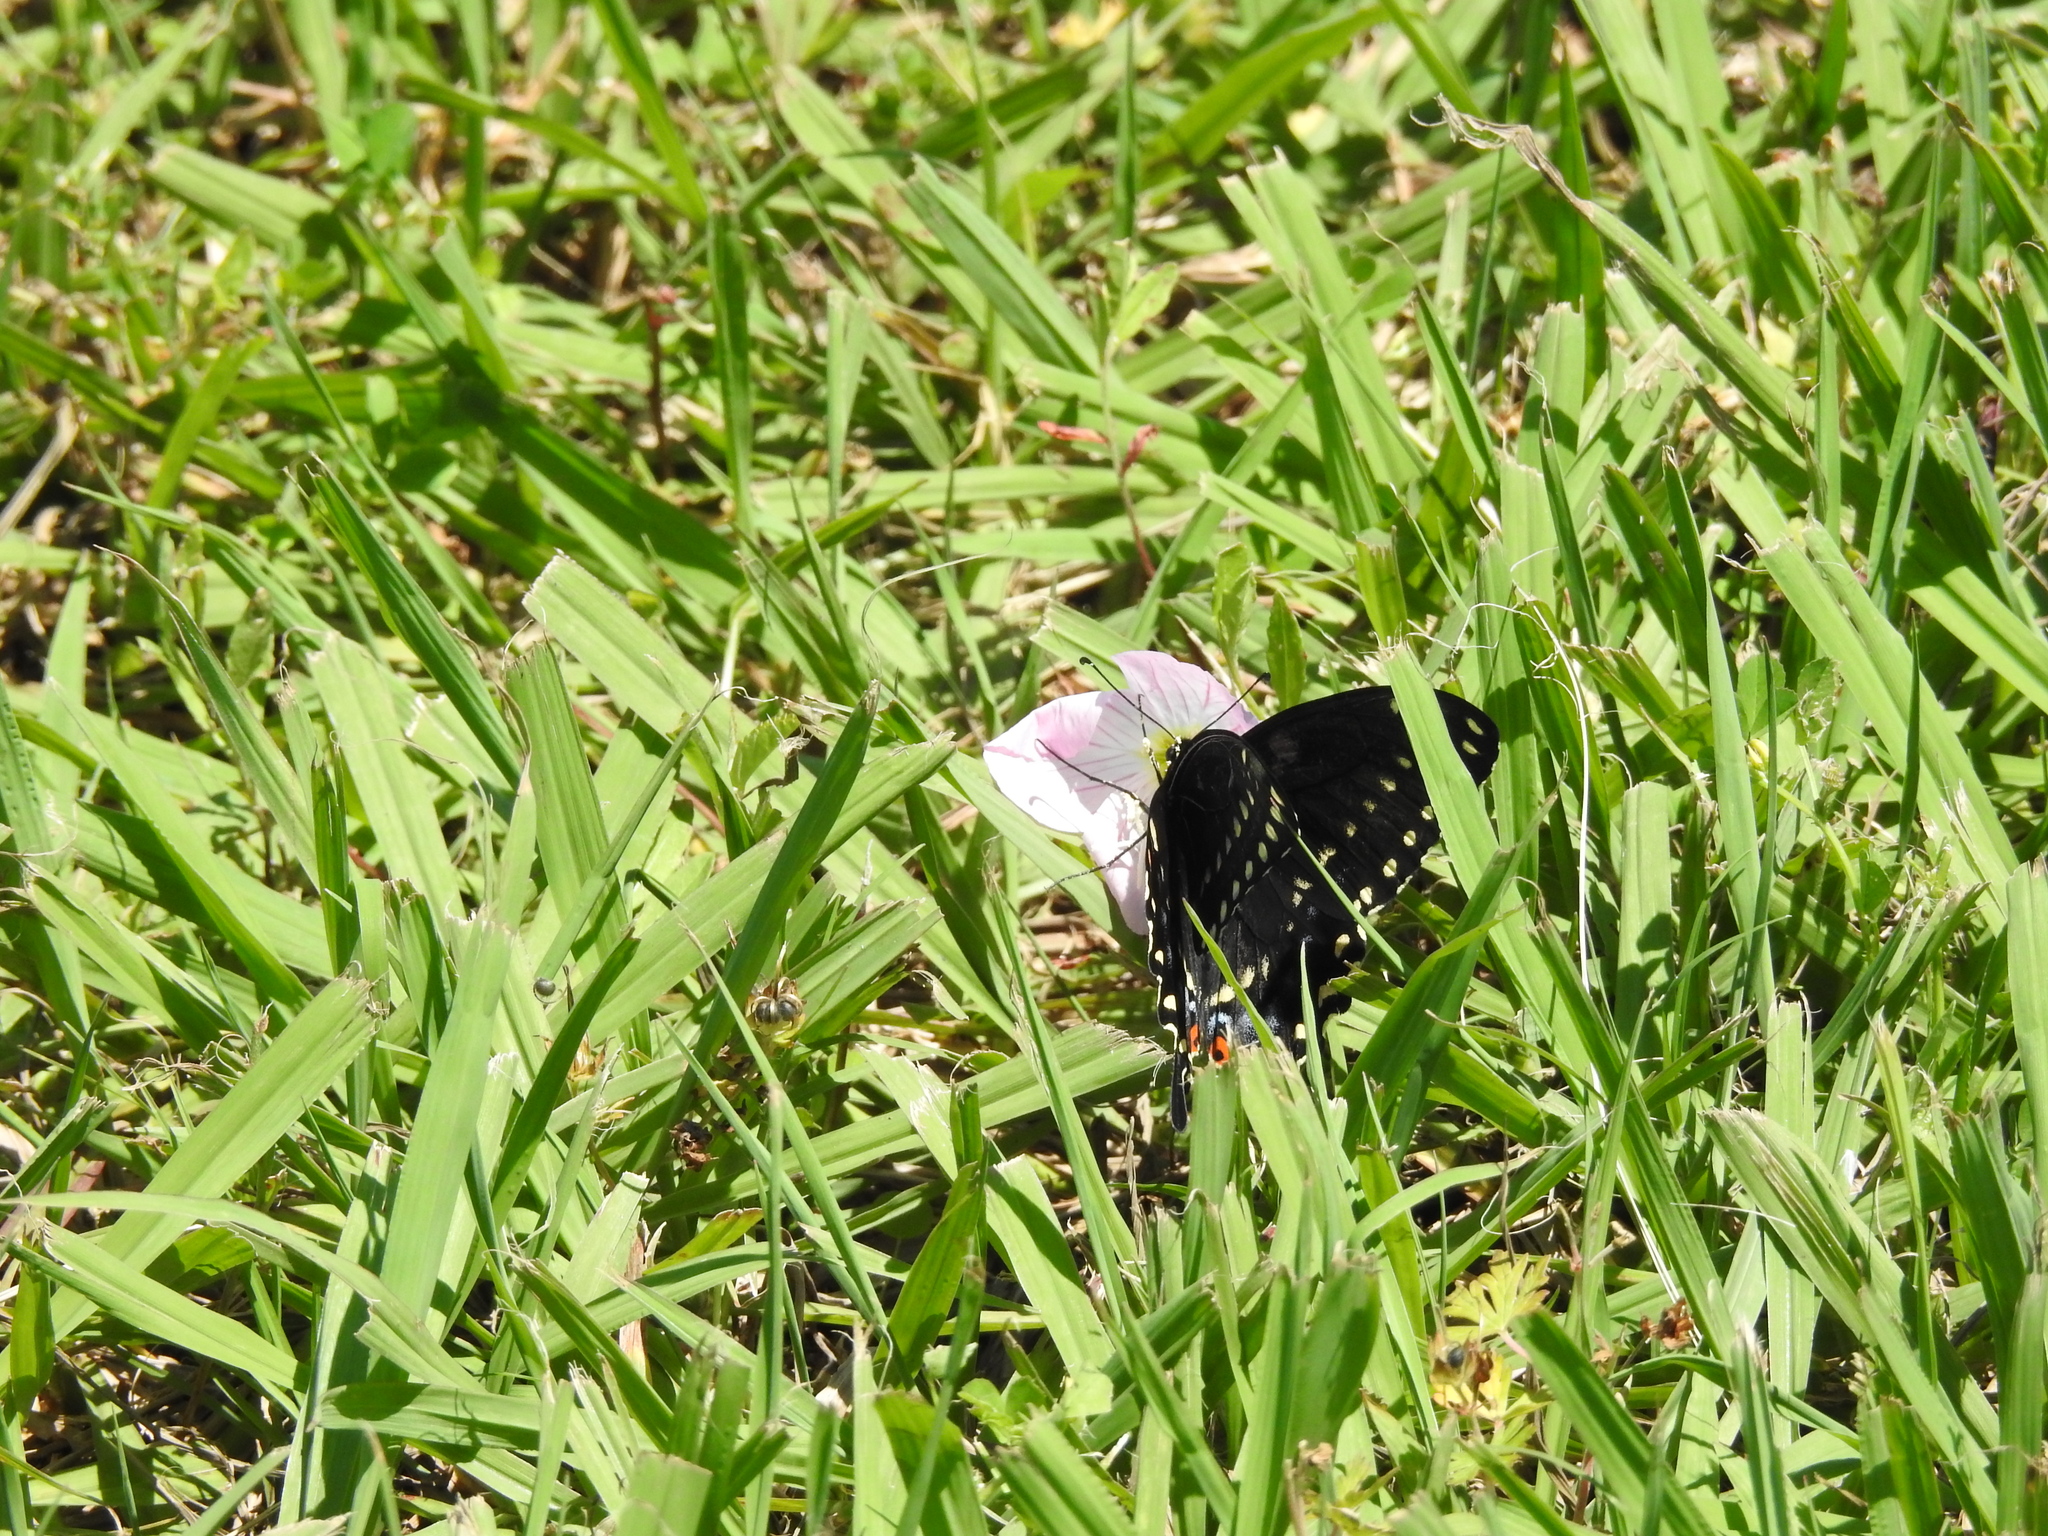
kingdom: Animalia
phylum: Arthropoda
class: Insecta
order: Lepidoptera
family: Papilionidae
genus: Papilio
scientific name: Papilio polyxenes
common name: Black swallowtail
